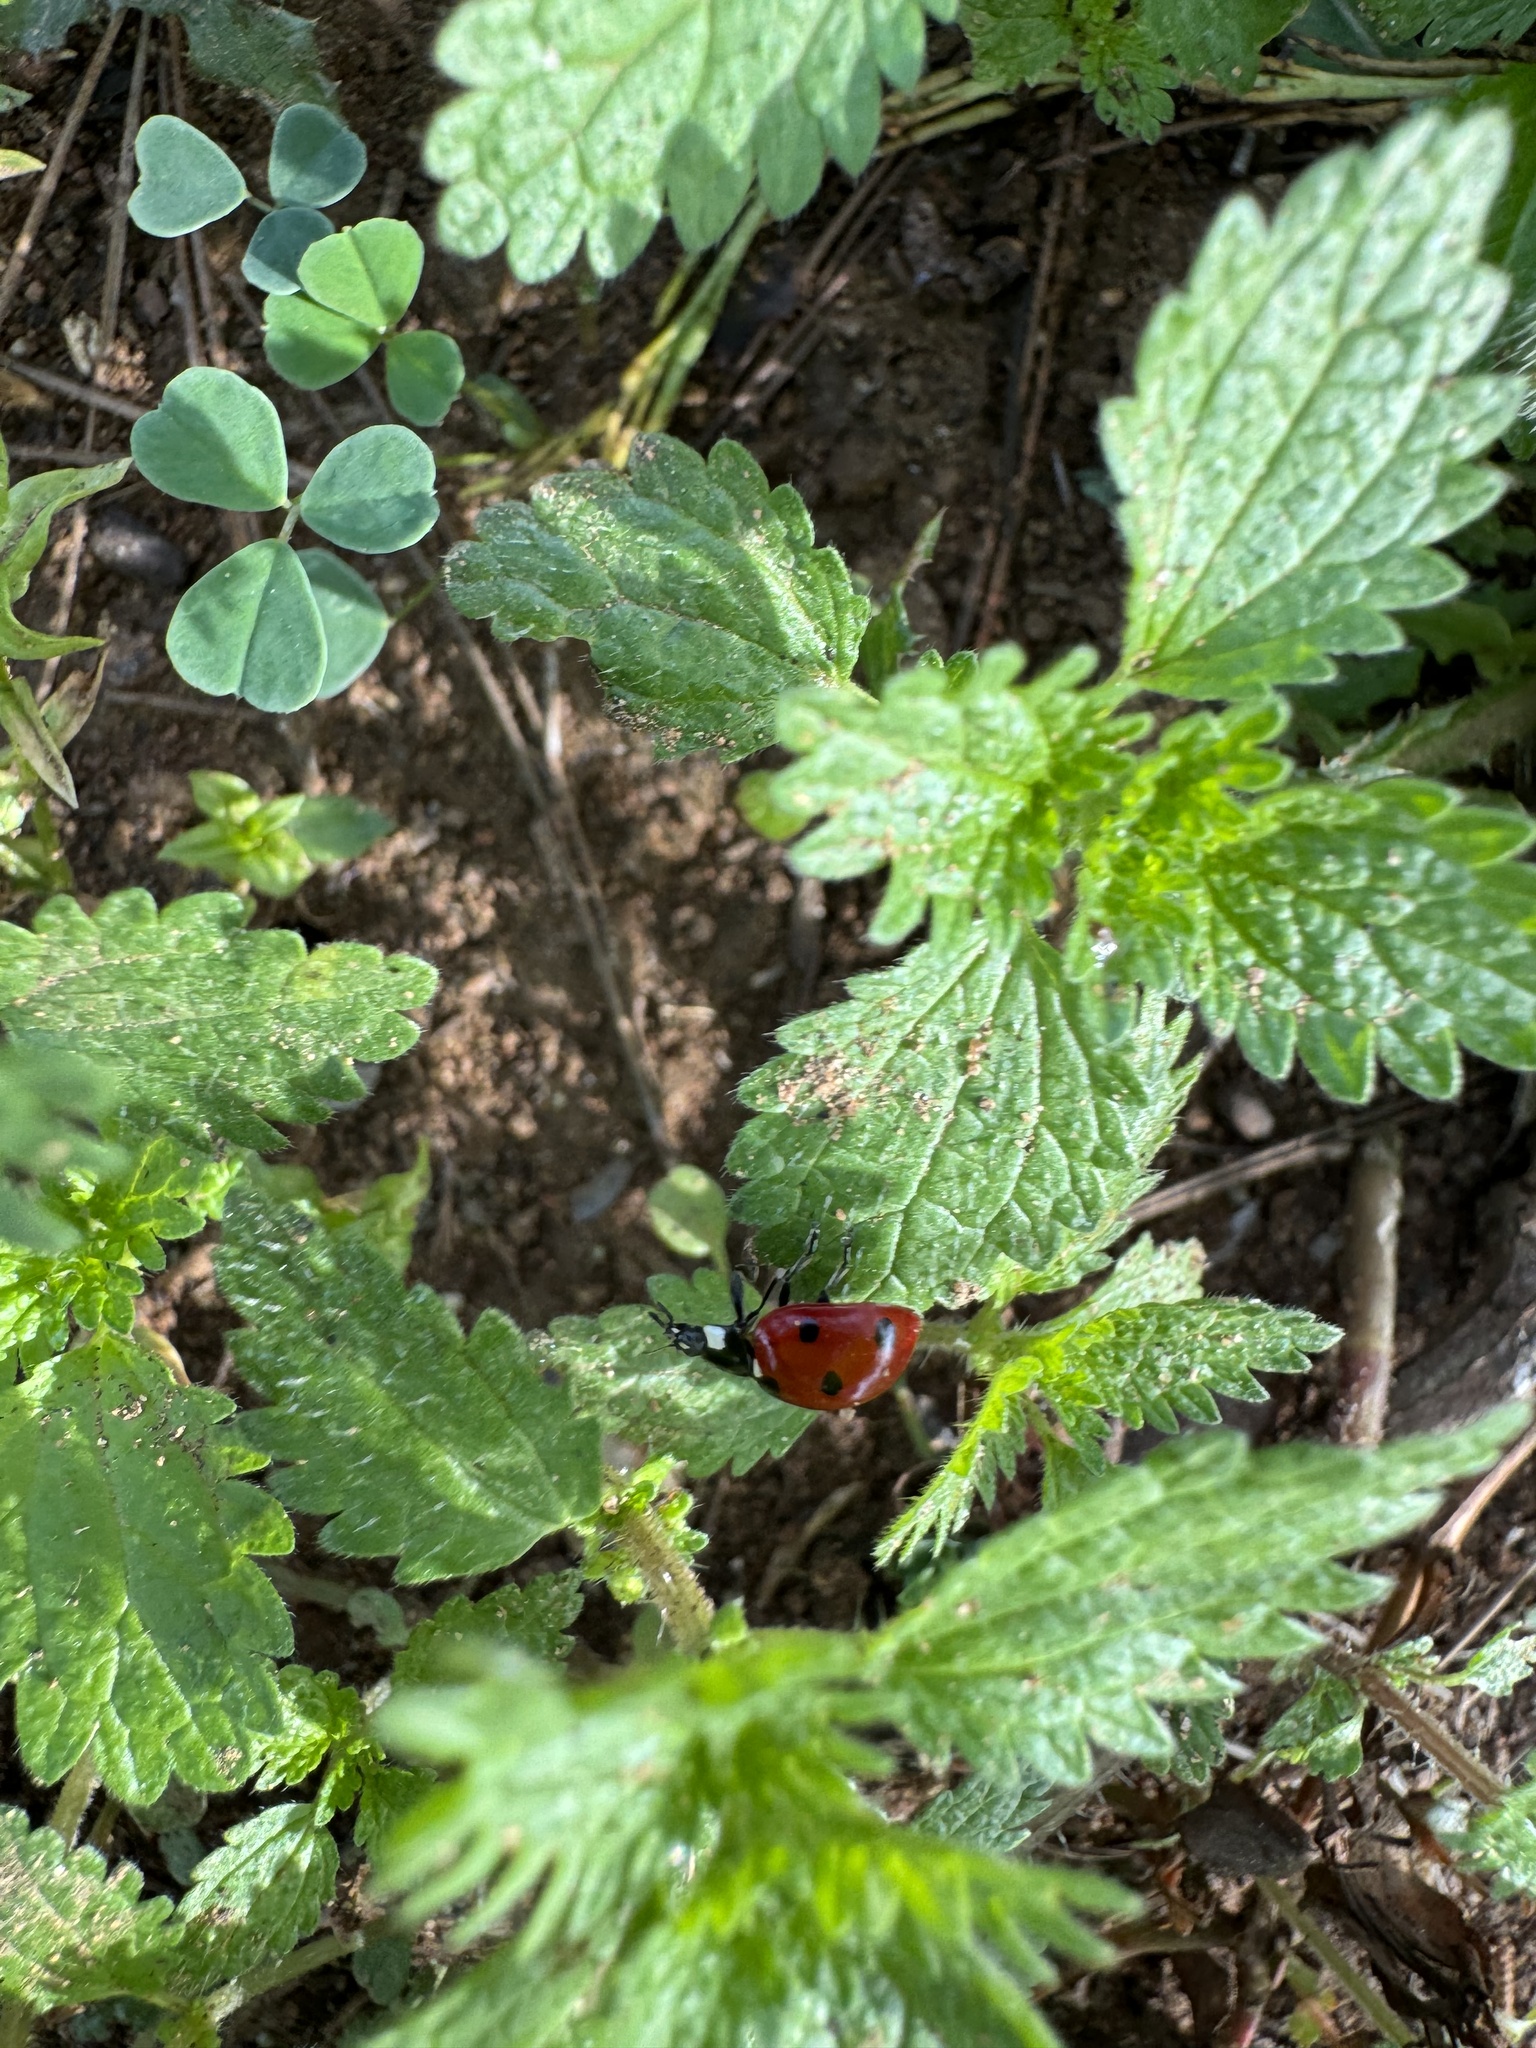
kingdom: Animalia
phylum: Arthropoda
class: Insecta
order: Coleoptera
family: Coccinellidae
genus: Coccinella
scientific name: Coccinella septempunctata
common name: Sevenspotted lady beetle
